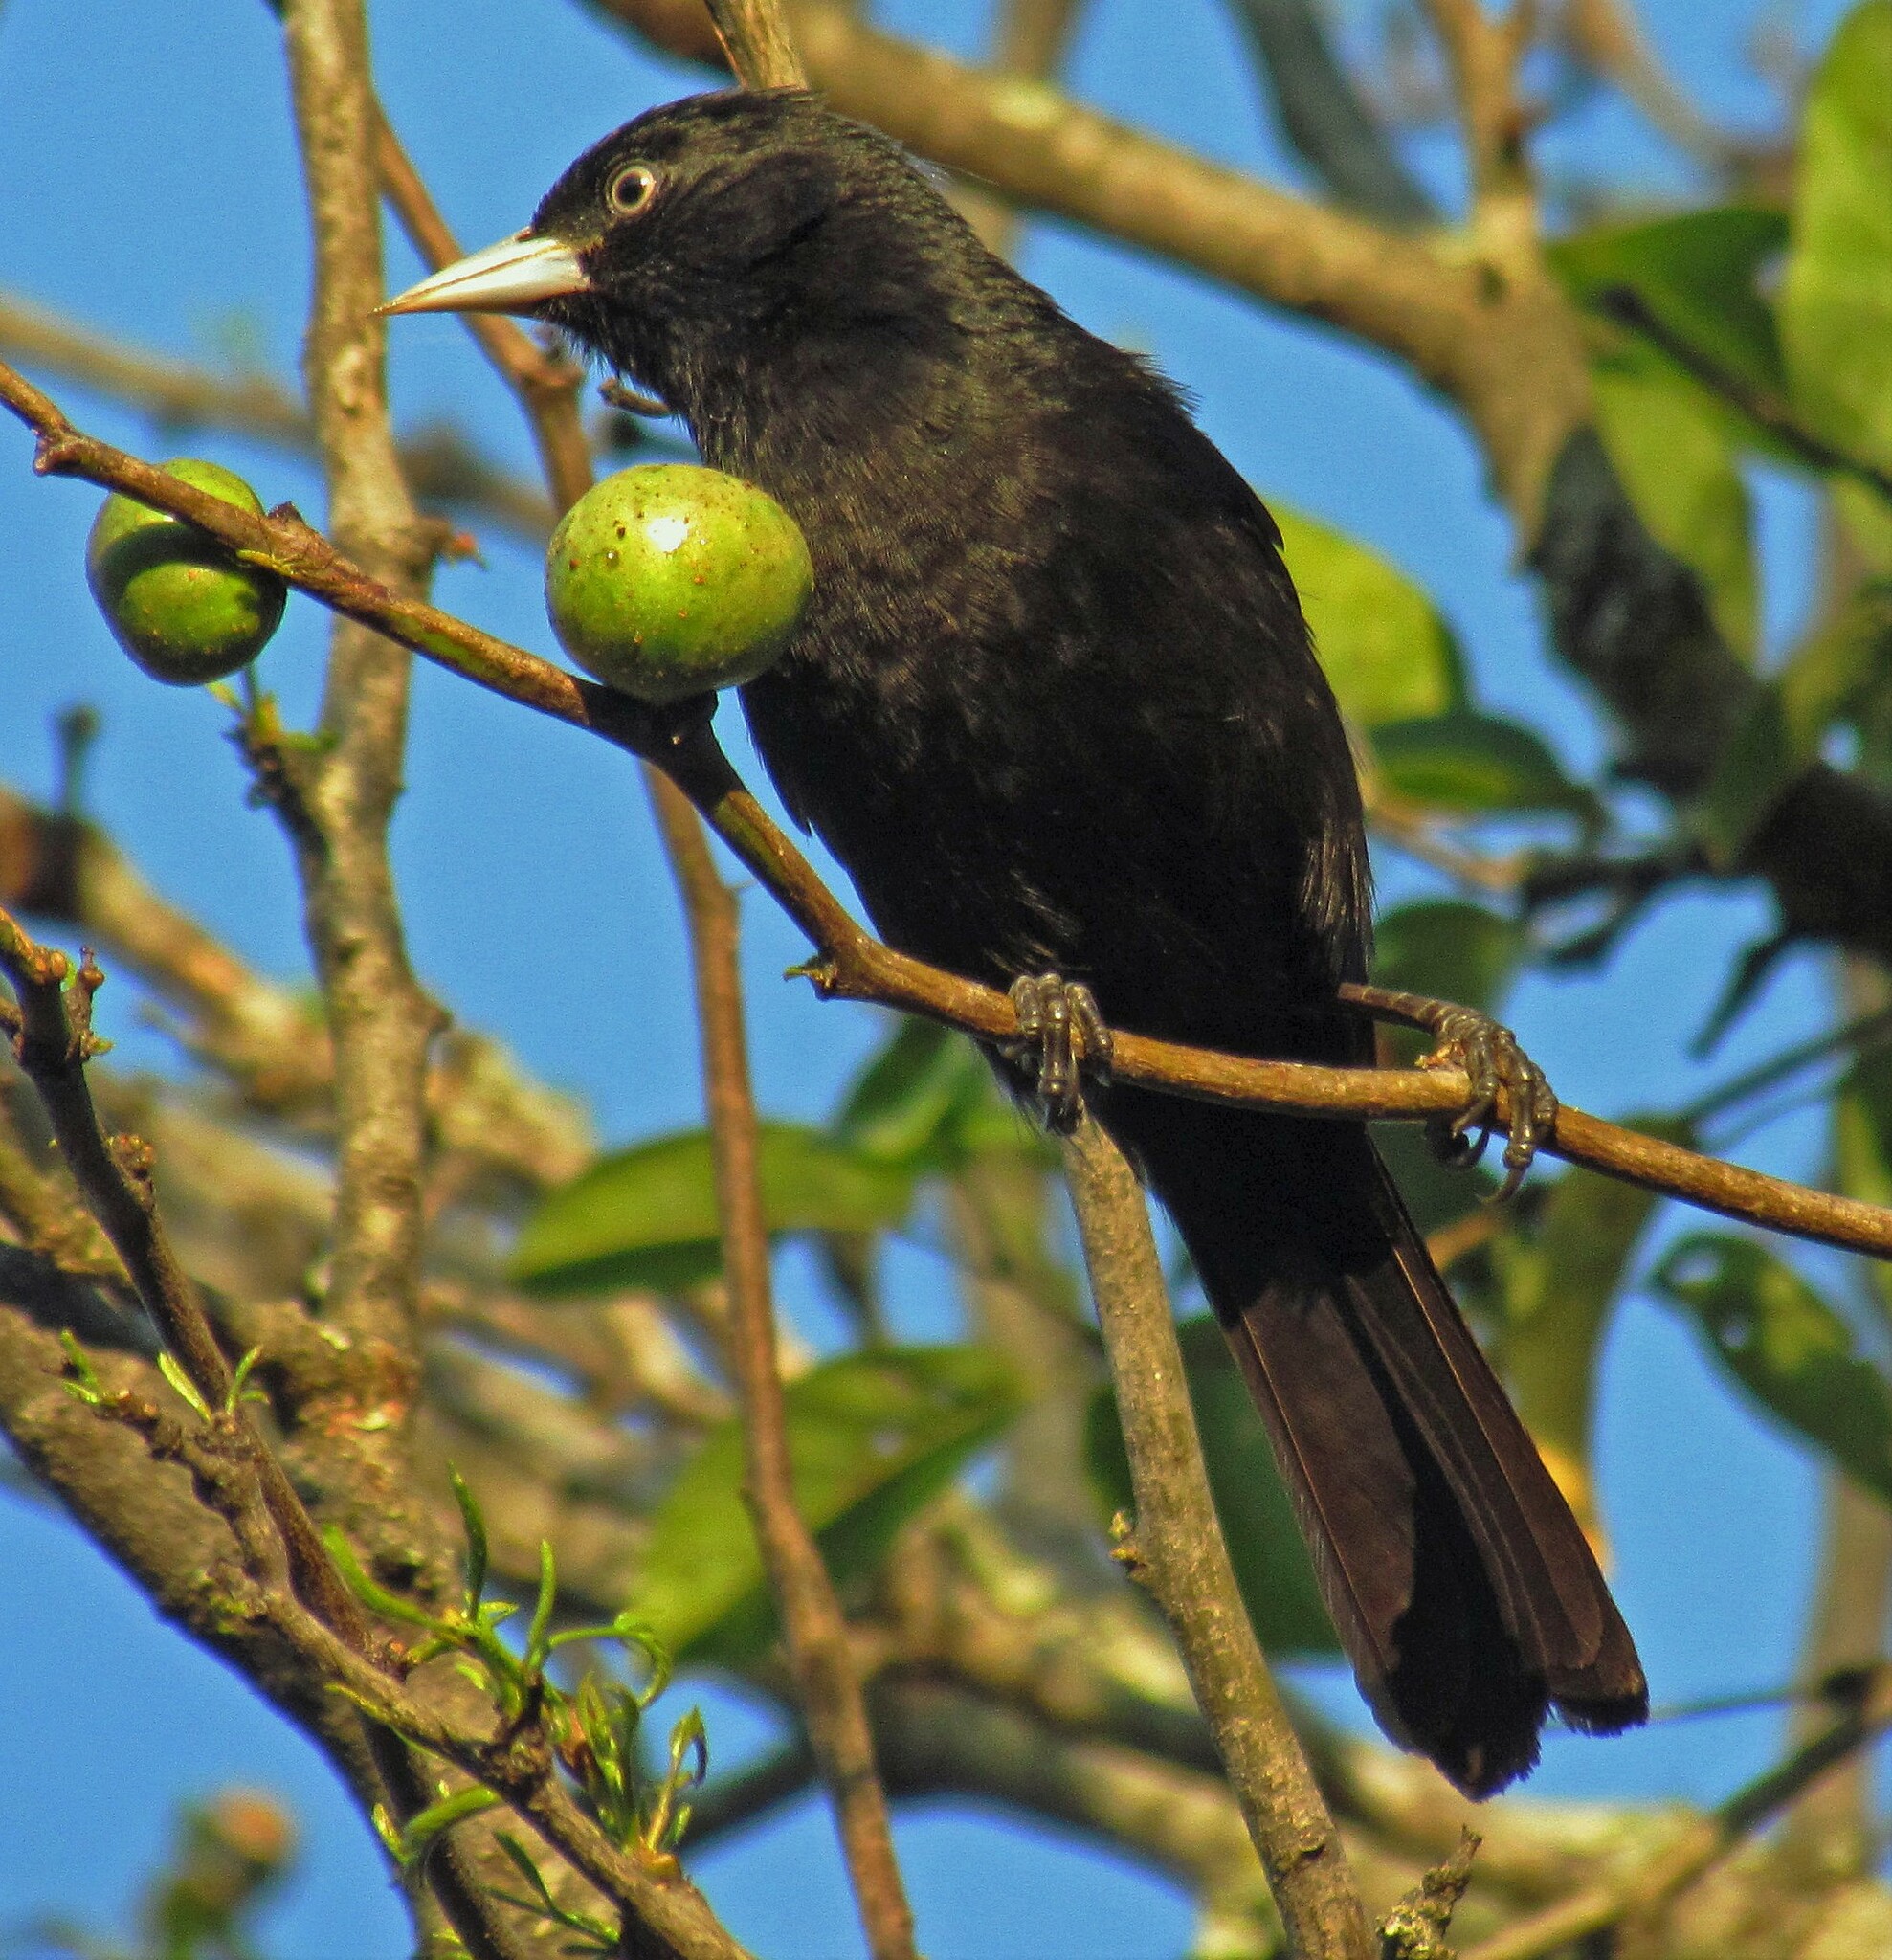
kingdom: Animalia
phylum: Chordata
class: Aves
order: Passeriformes
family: Icteridae
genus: Cacicus
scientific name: Cacicus chrysopterus
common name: Golden-winged cacique
